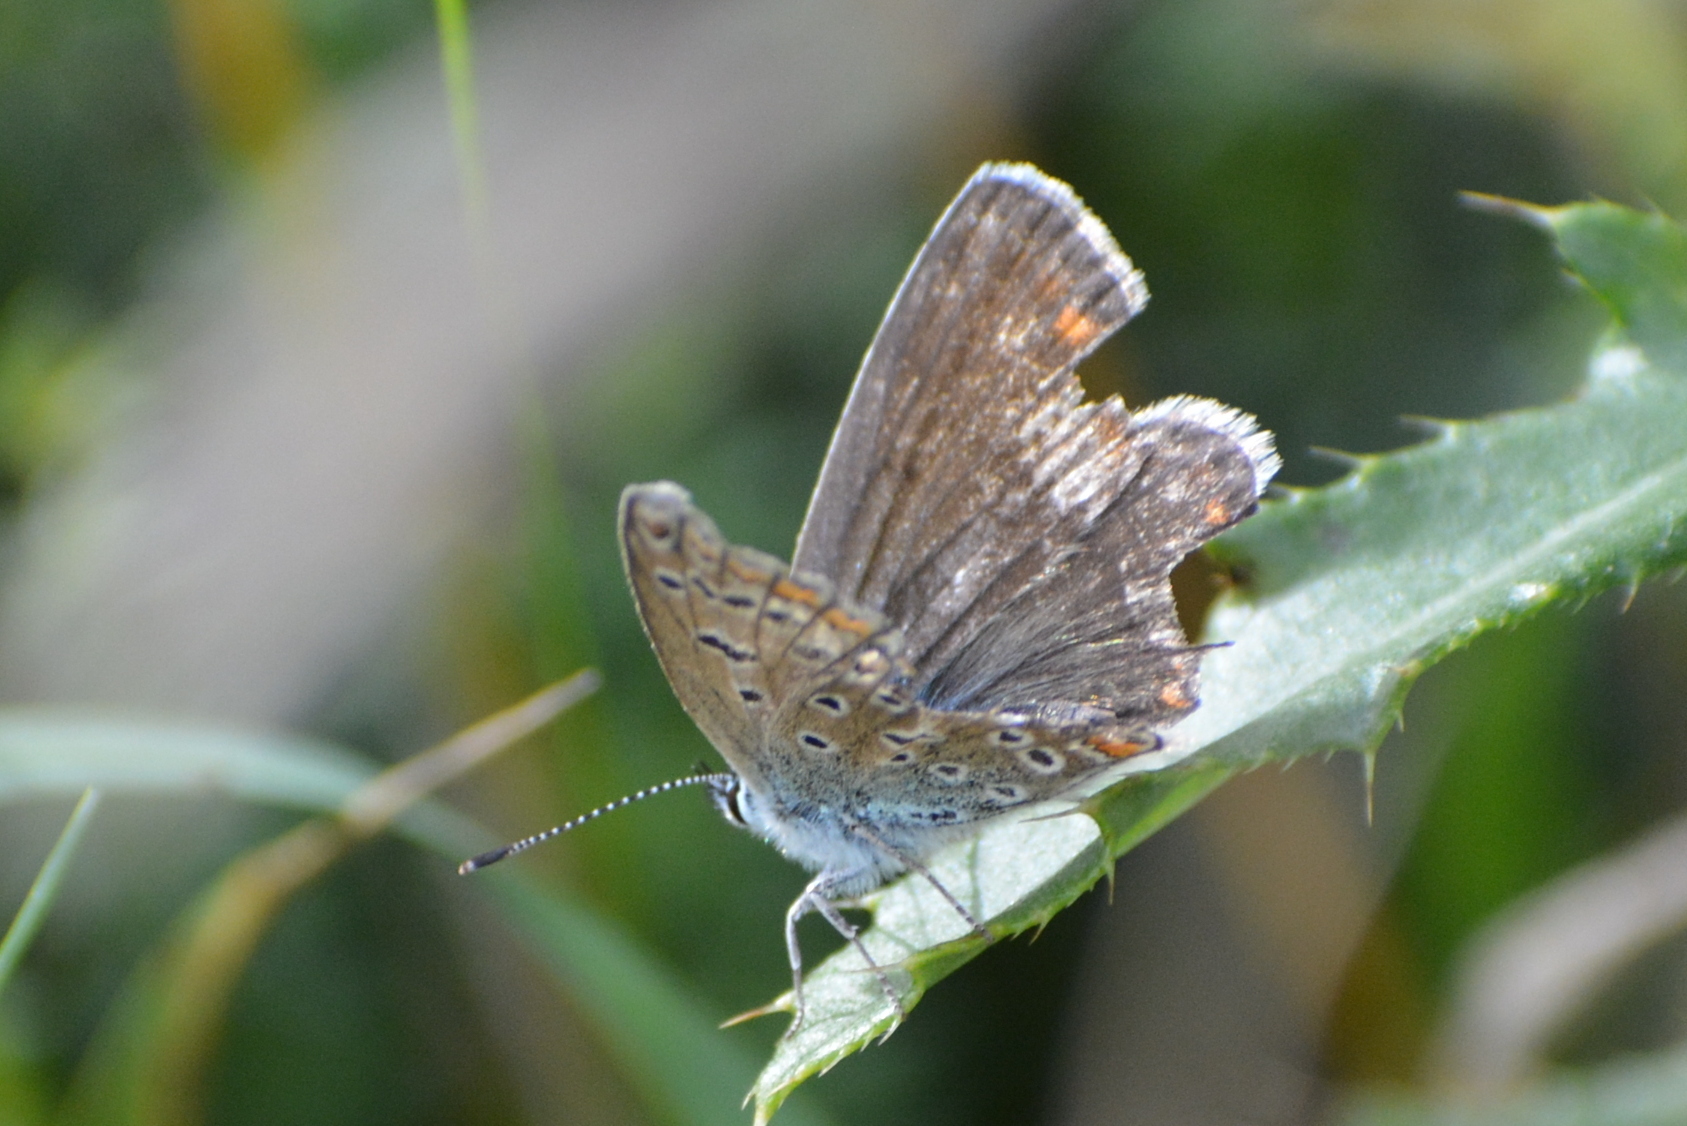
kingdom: Animalia
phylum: Arthropoda
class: Insecta
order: Lepidoptera
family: Lycaenidae
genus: Polyommatus
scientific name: Polyommatus icarus
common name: Common blue
